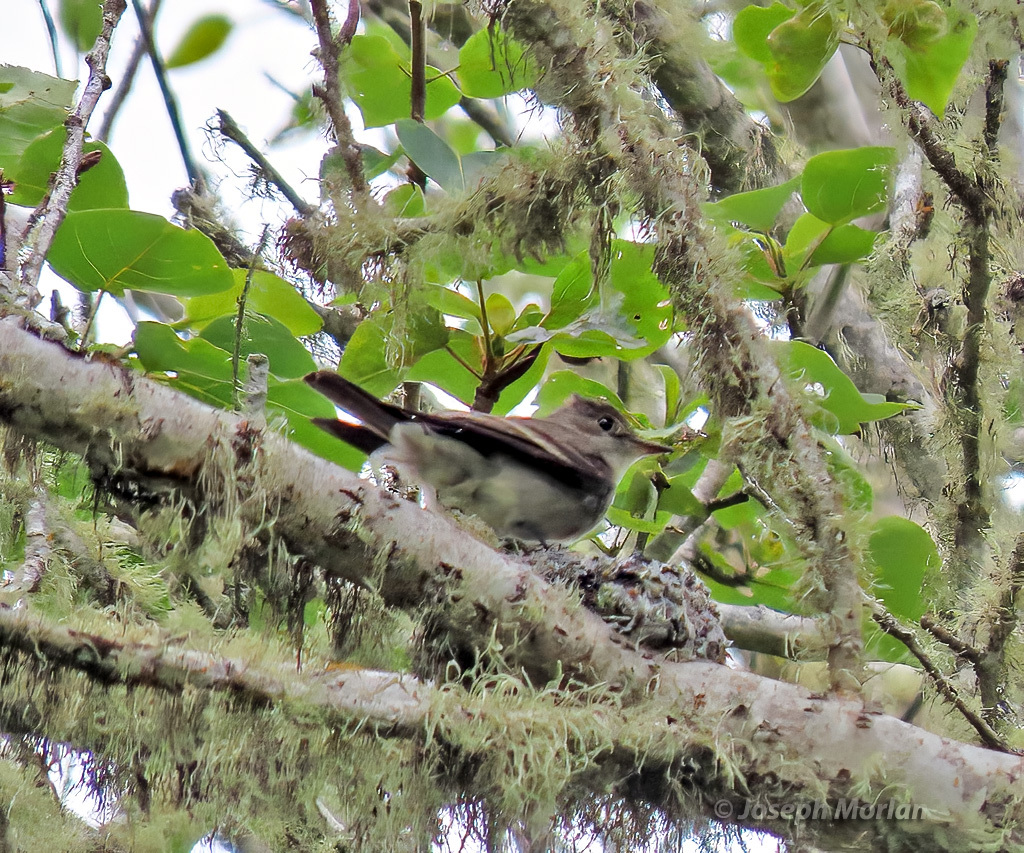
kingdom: Animalia
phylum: Chordata
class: Aves
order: Passeriformes
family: Tyrannidae
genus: Contopus
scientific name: Contopus sordidulus
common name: Western wood-pewee
